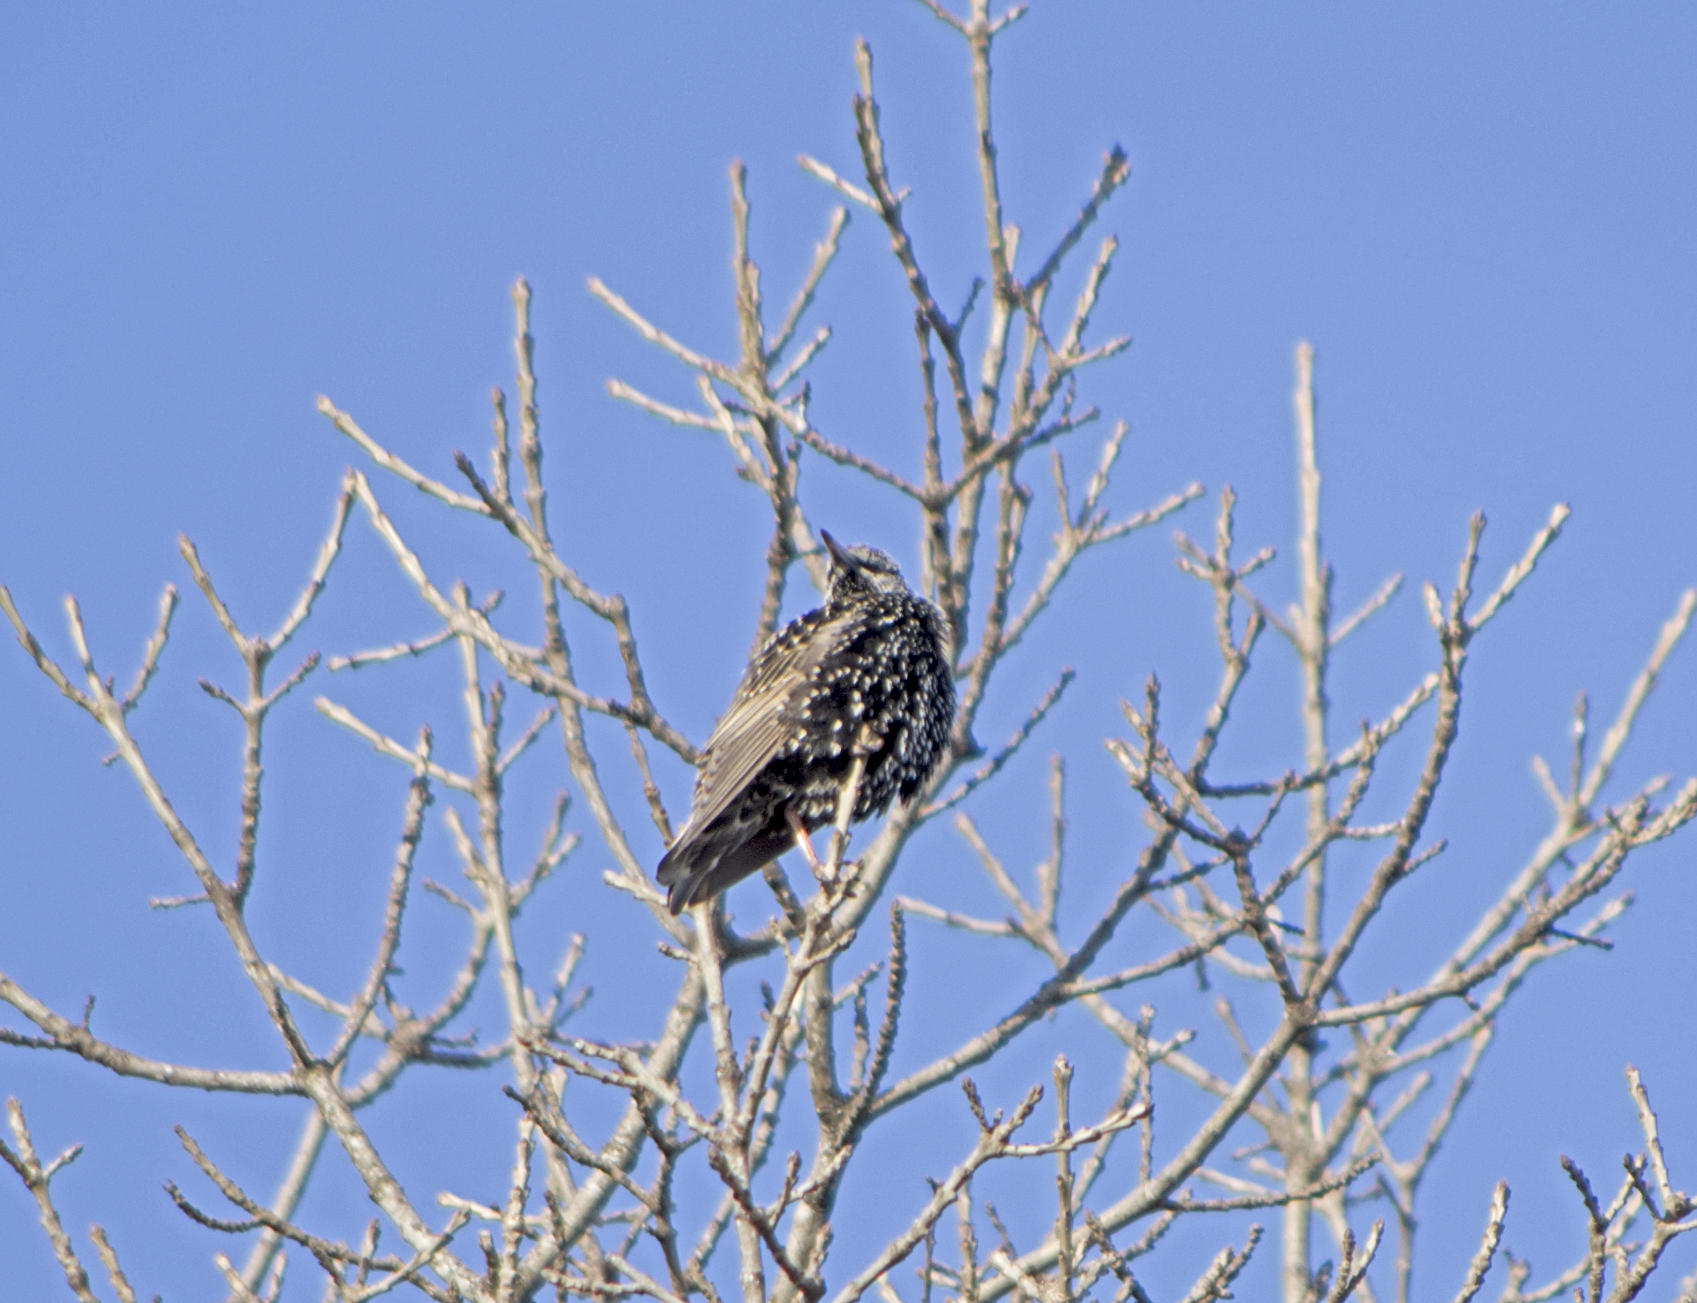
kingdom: Animalia
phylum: Chordata
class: Aves
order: Passeriformes
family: Sturnidae
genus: Sturnus
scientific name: Sturnus vulgaris
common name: Common starling
